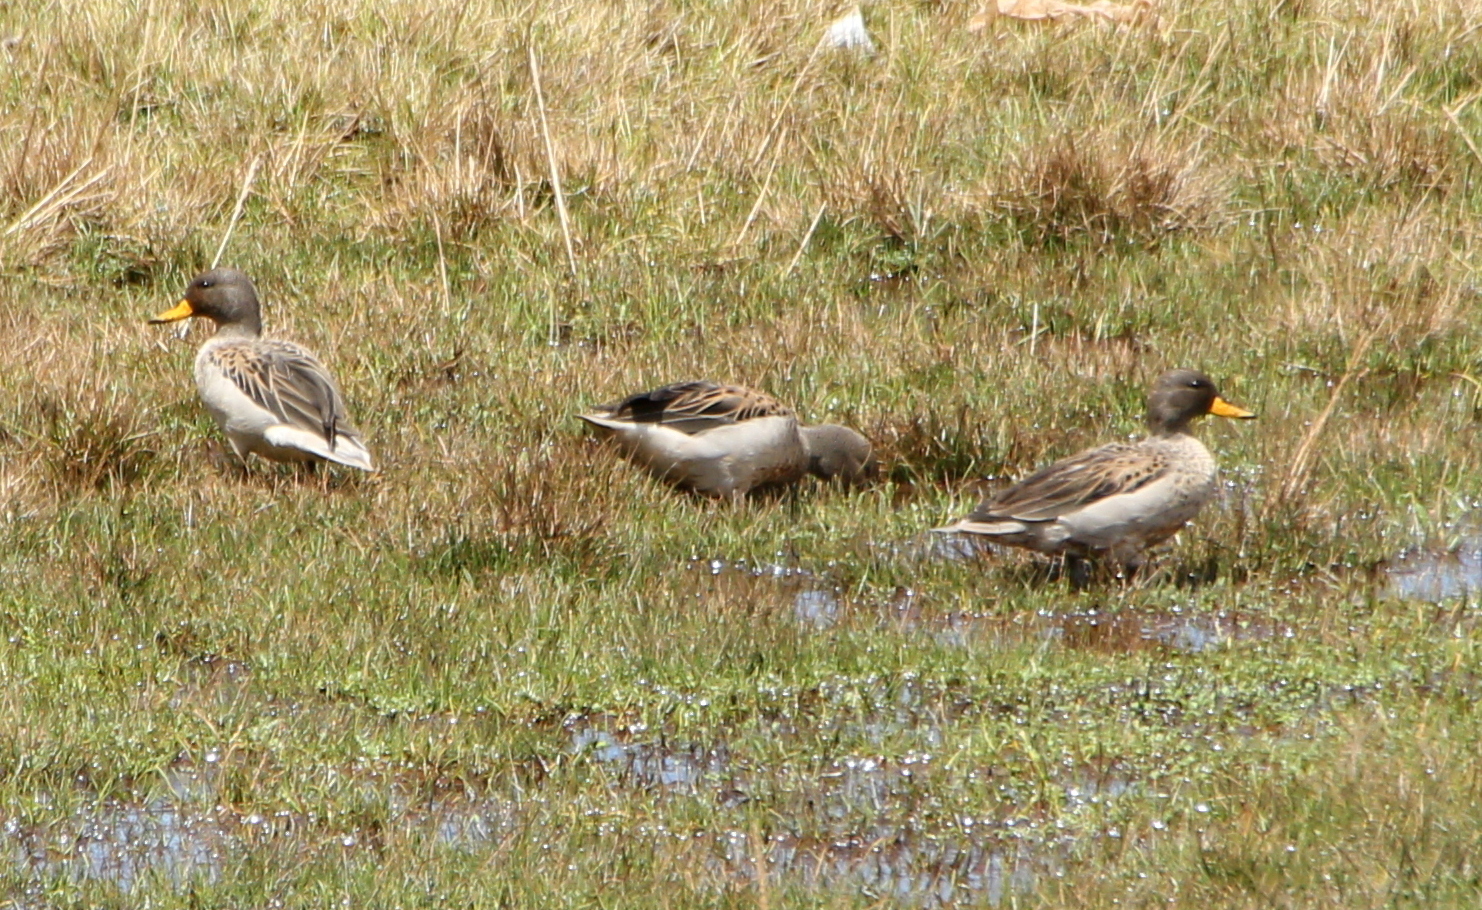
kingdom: Animalia
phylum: Chordata
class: Aves
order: Anseriformes
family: Anatidae
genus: Anas
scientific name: Anas flavirostris
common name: Yellow-billed teal
